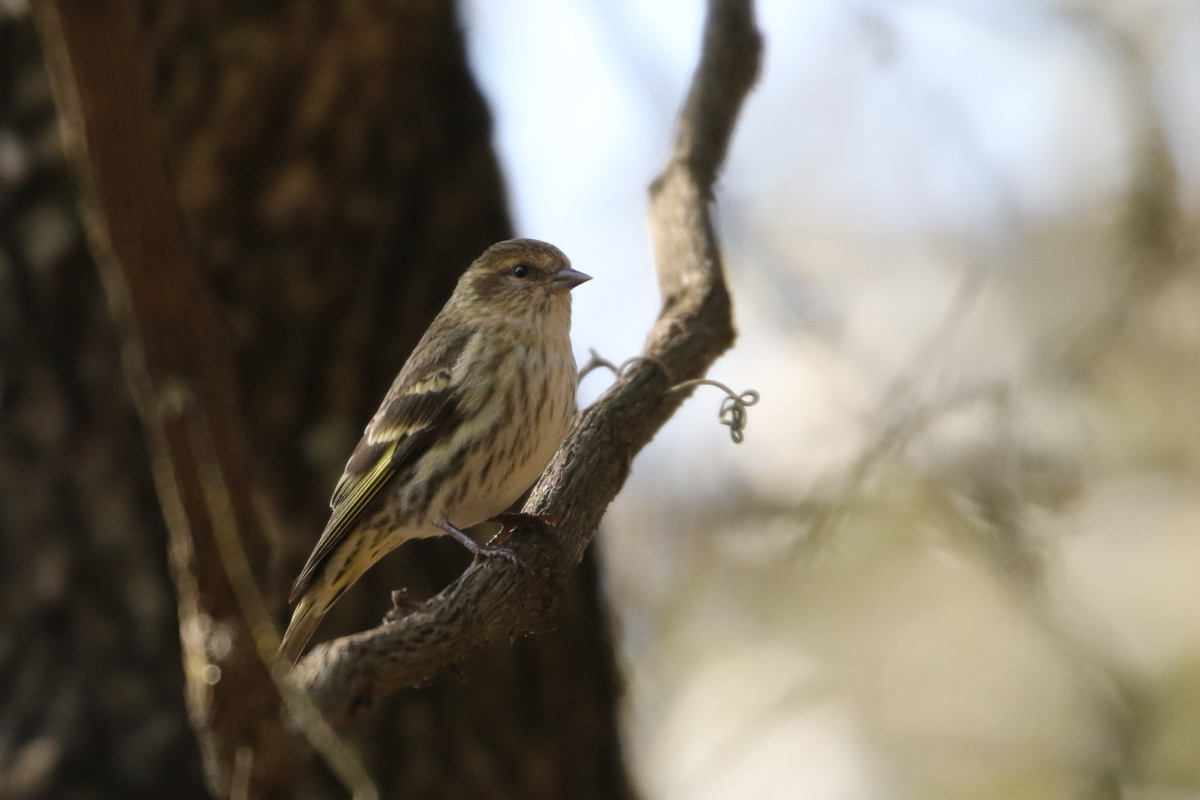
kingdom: Animalia
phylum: Chordata
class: Aves
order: Passeriformes
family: Fringillidae
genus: Spinus
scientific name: Spinus pinus
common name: Pine siskin
